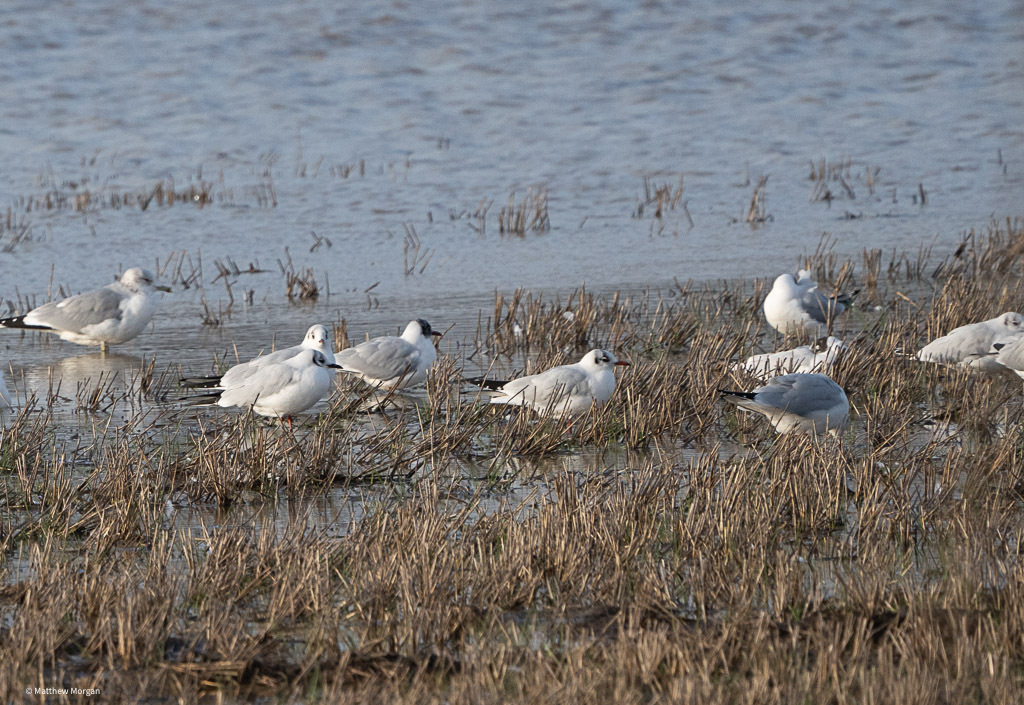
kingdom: Animalia
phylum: Chordata
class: Aves
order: Charadriiformes
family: Laridae
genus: Chroicocephalus
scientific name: Chroicocephalus ridibundus
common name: Black-headed gull
